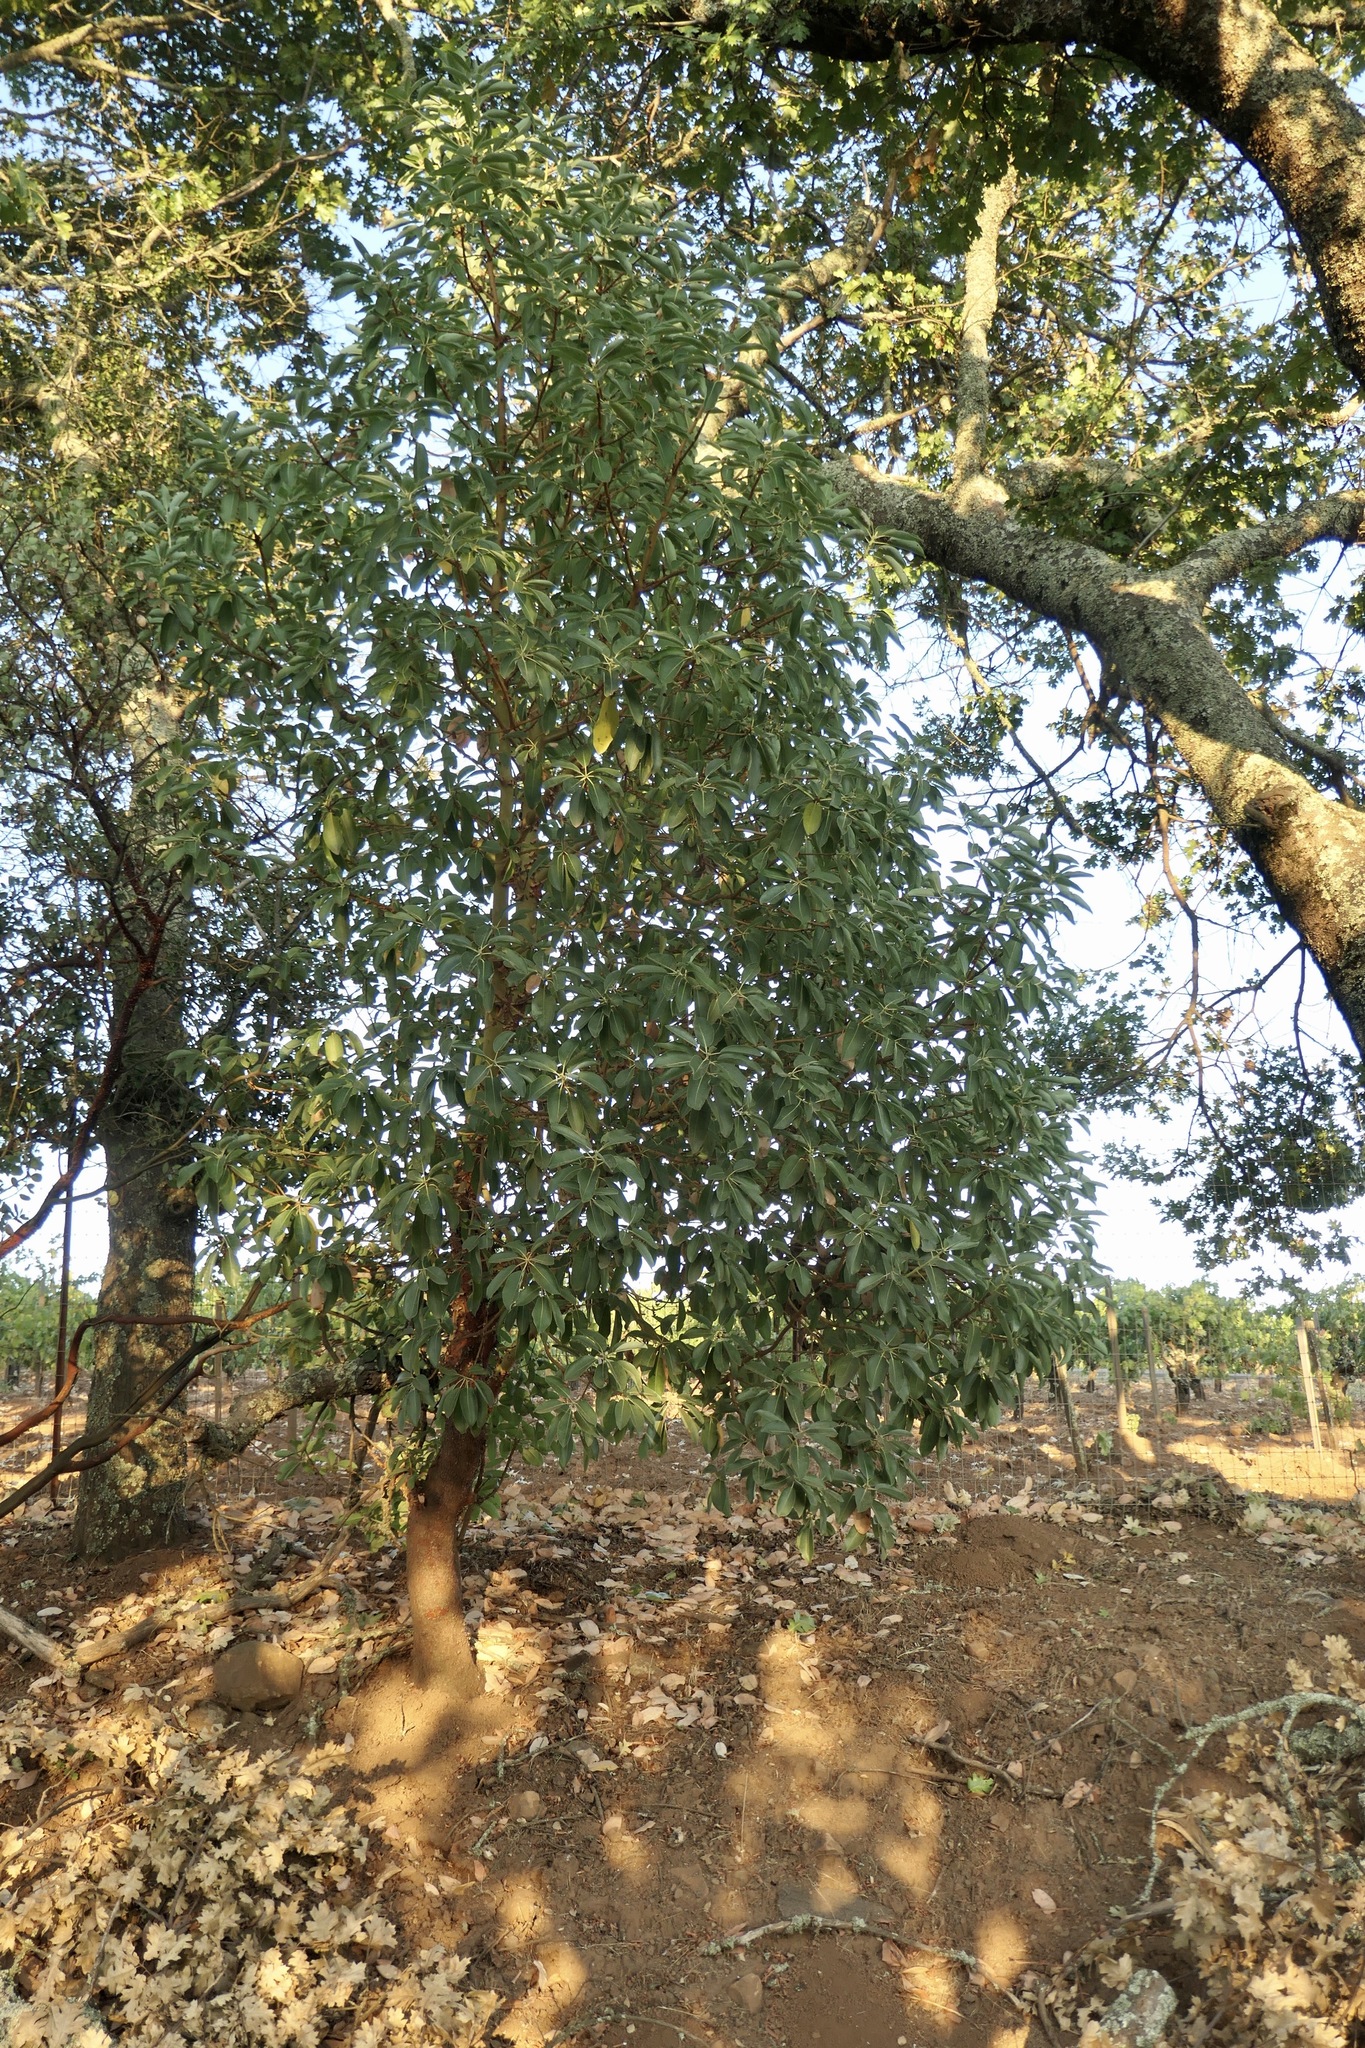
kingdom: Plantae
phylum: Tracheophyta
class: Magnoliopsida
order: Ericales
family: Ericaceae
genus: Arbutus
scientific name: Arbutus menziesii
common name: Pacific madrone
